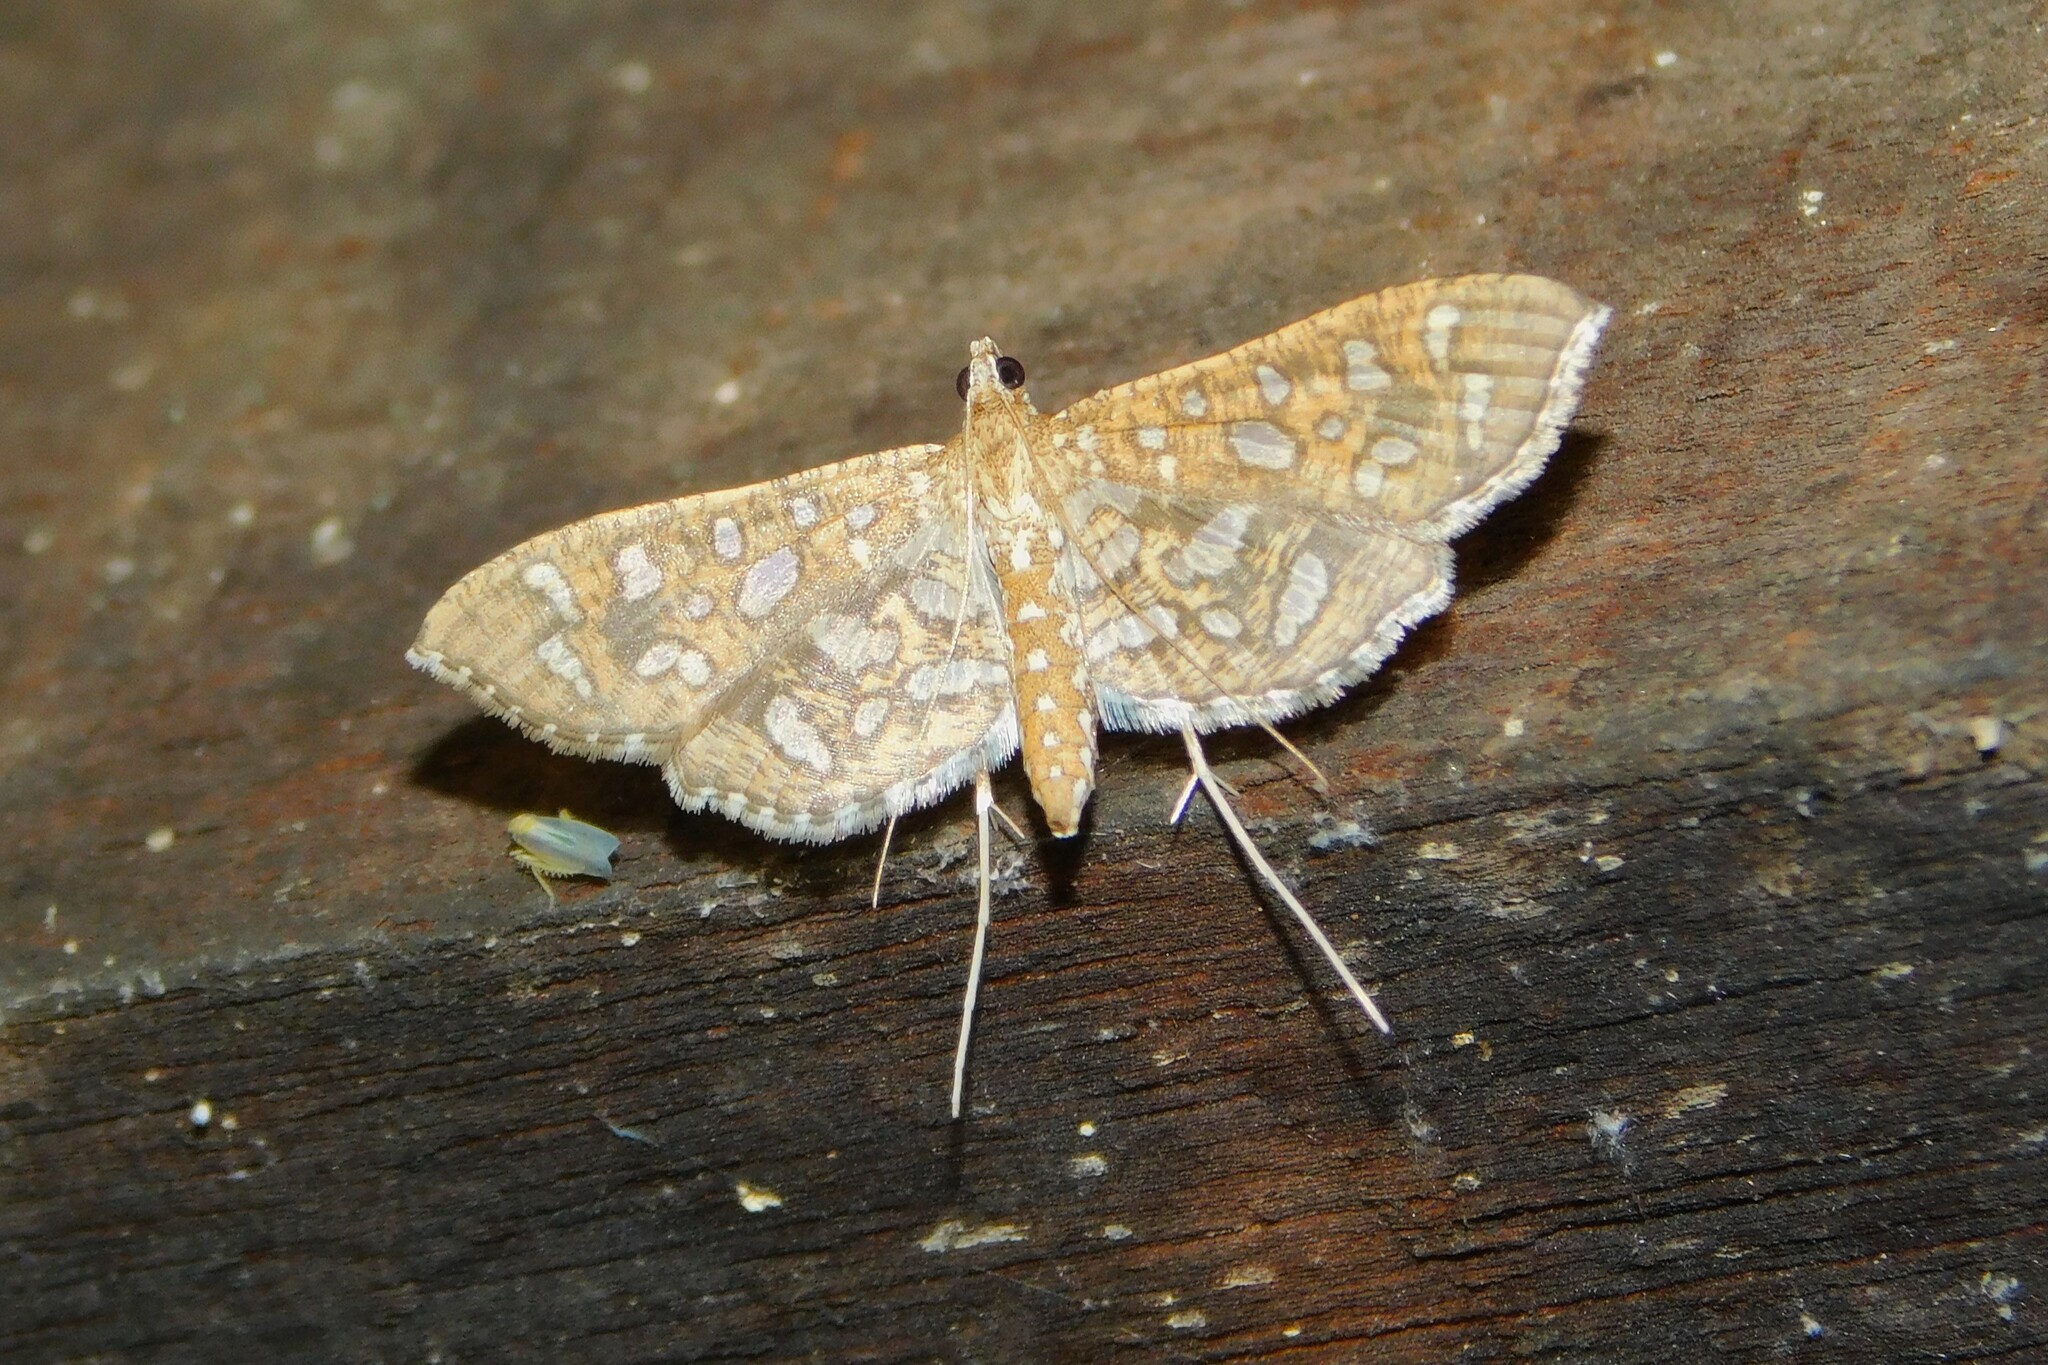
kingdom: Animalia
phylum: Arthropoda
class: Insecta
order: Lepidoptera
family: Crambidae
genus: Nausinoe
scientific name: Nausinoe geometralis
